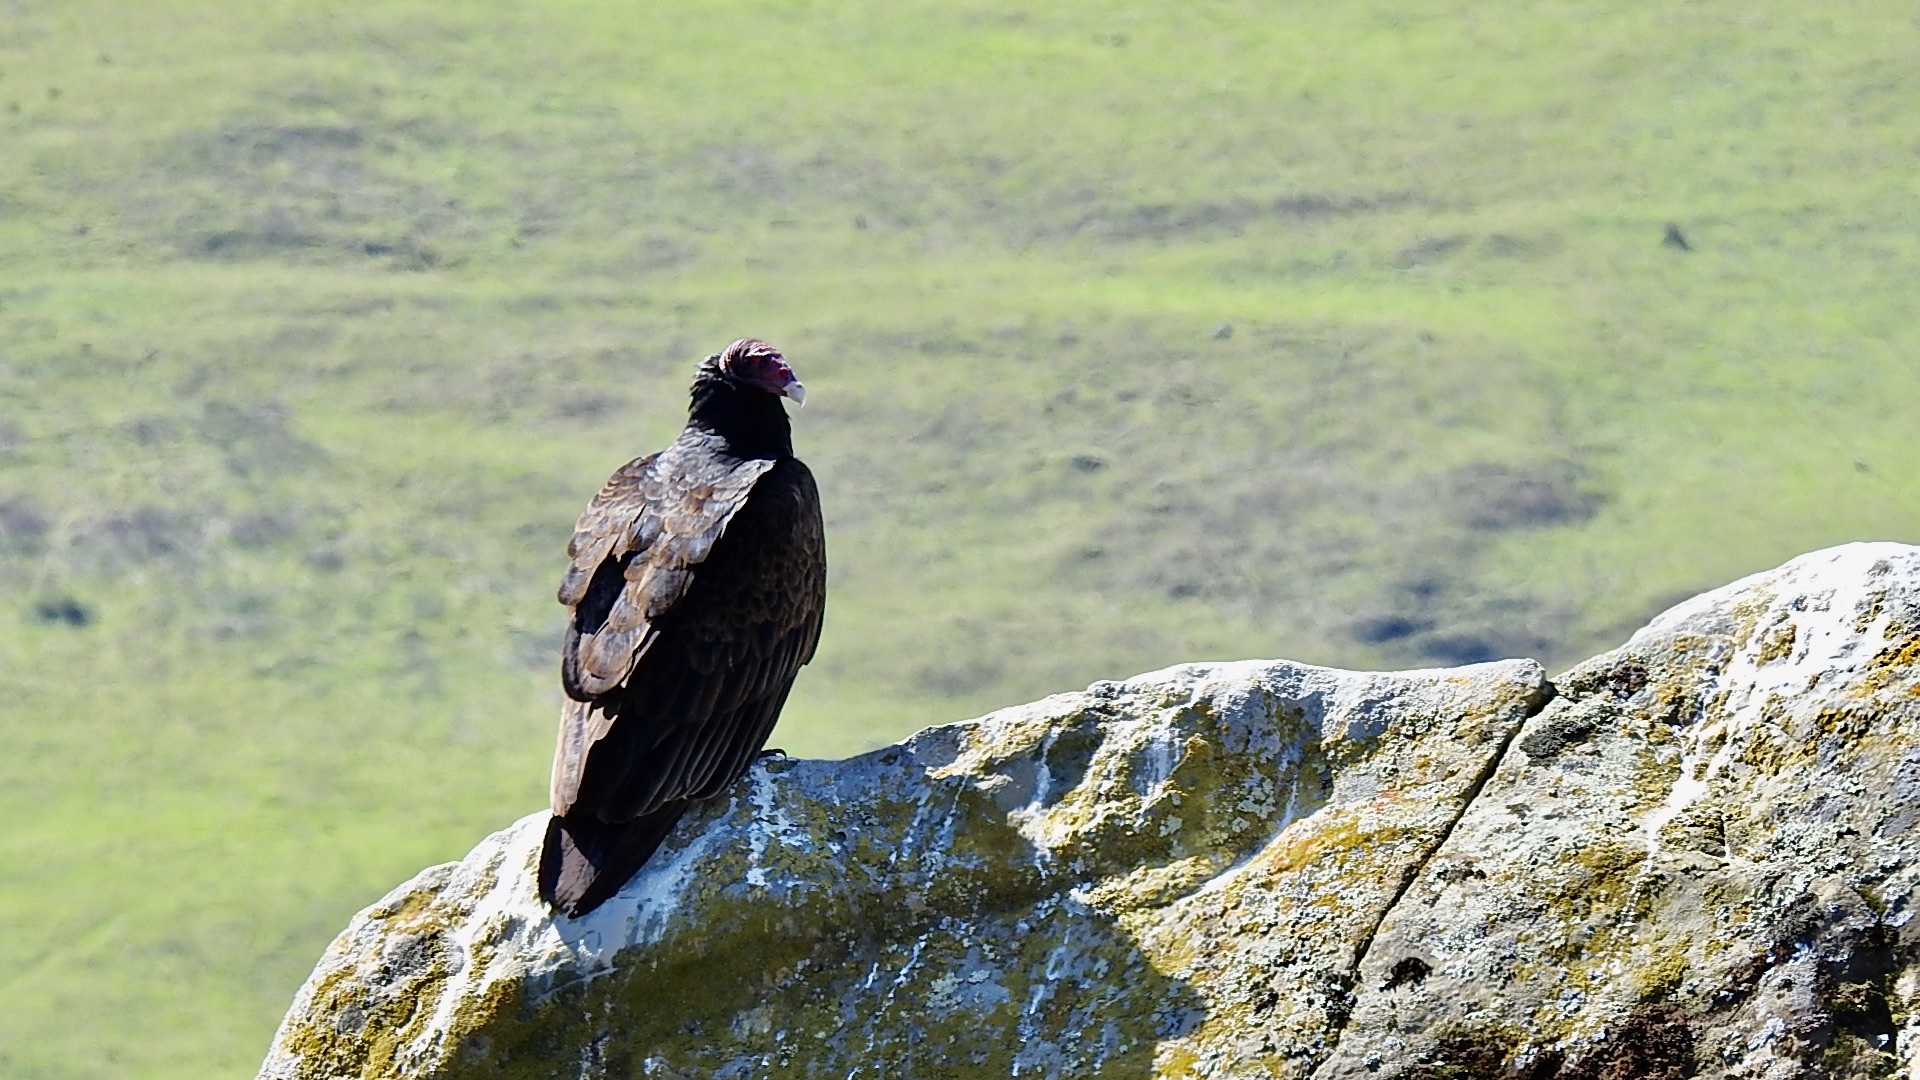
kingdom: Animalia
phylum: Chordata
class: Aves
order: Accipitriformes
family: Cathartidae
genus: Cathartes
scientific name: Cathartes aura
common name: Turkey vulture
